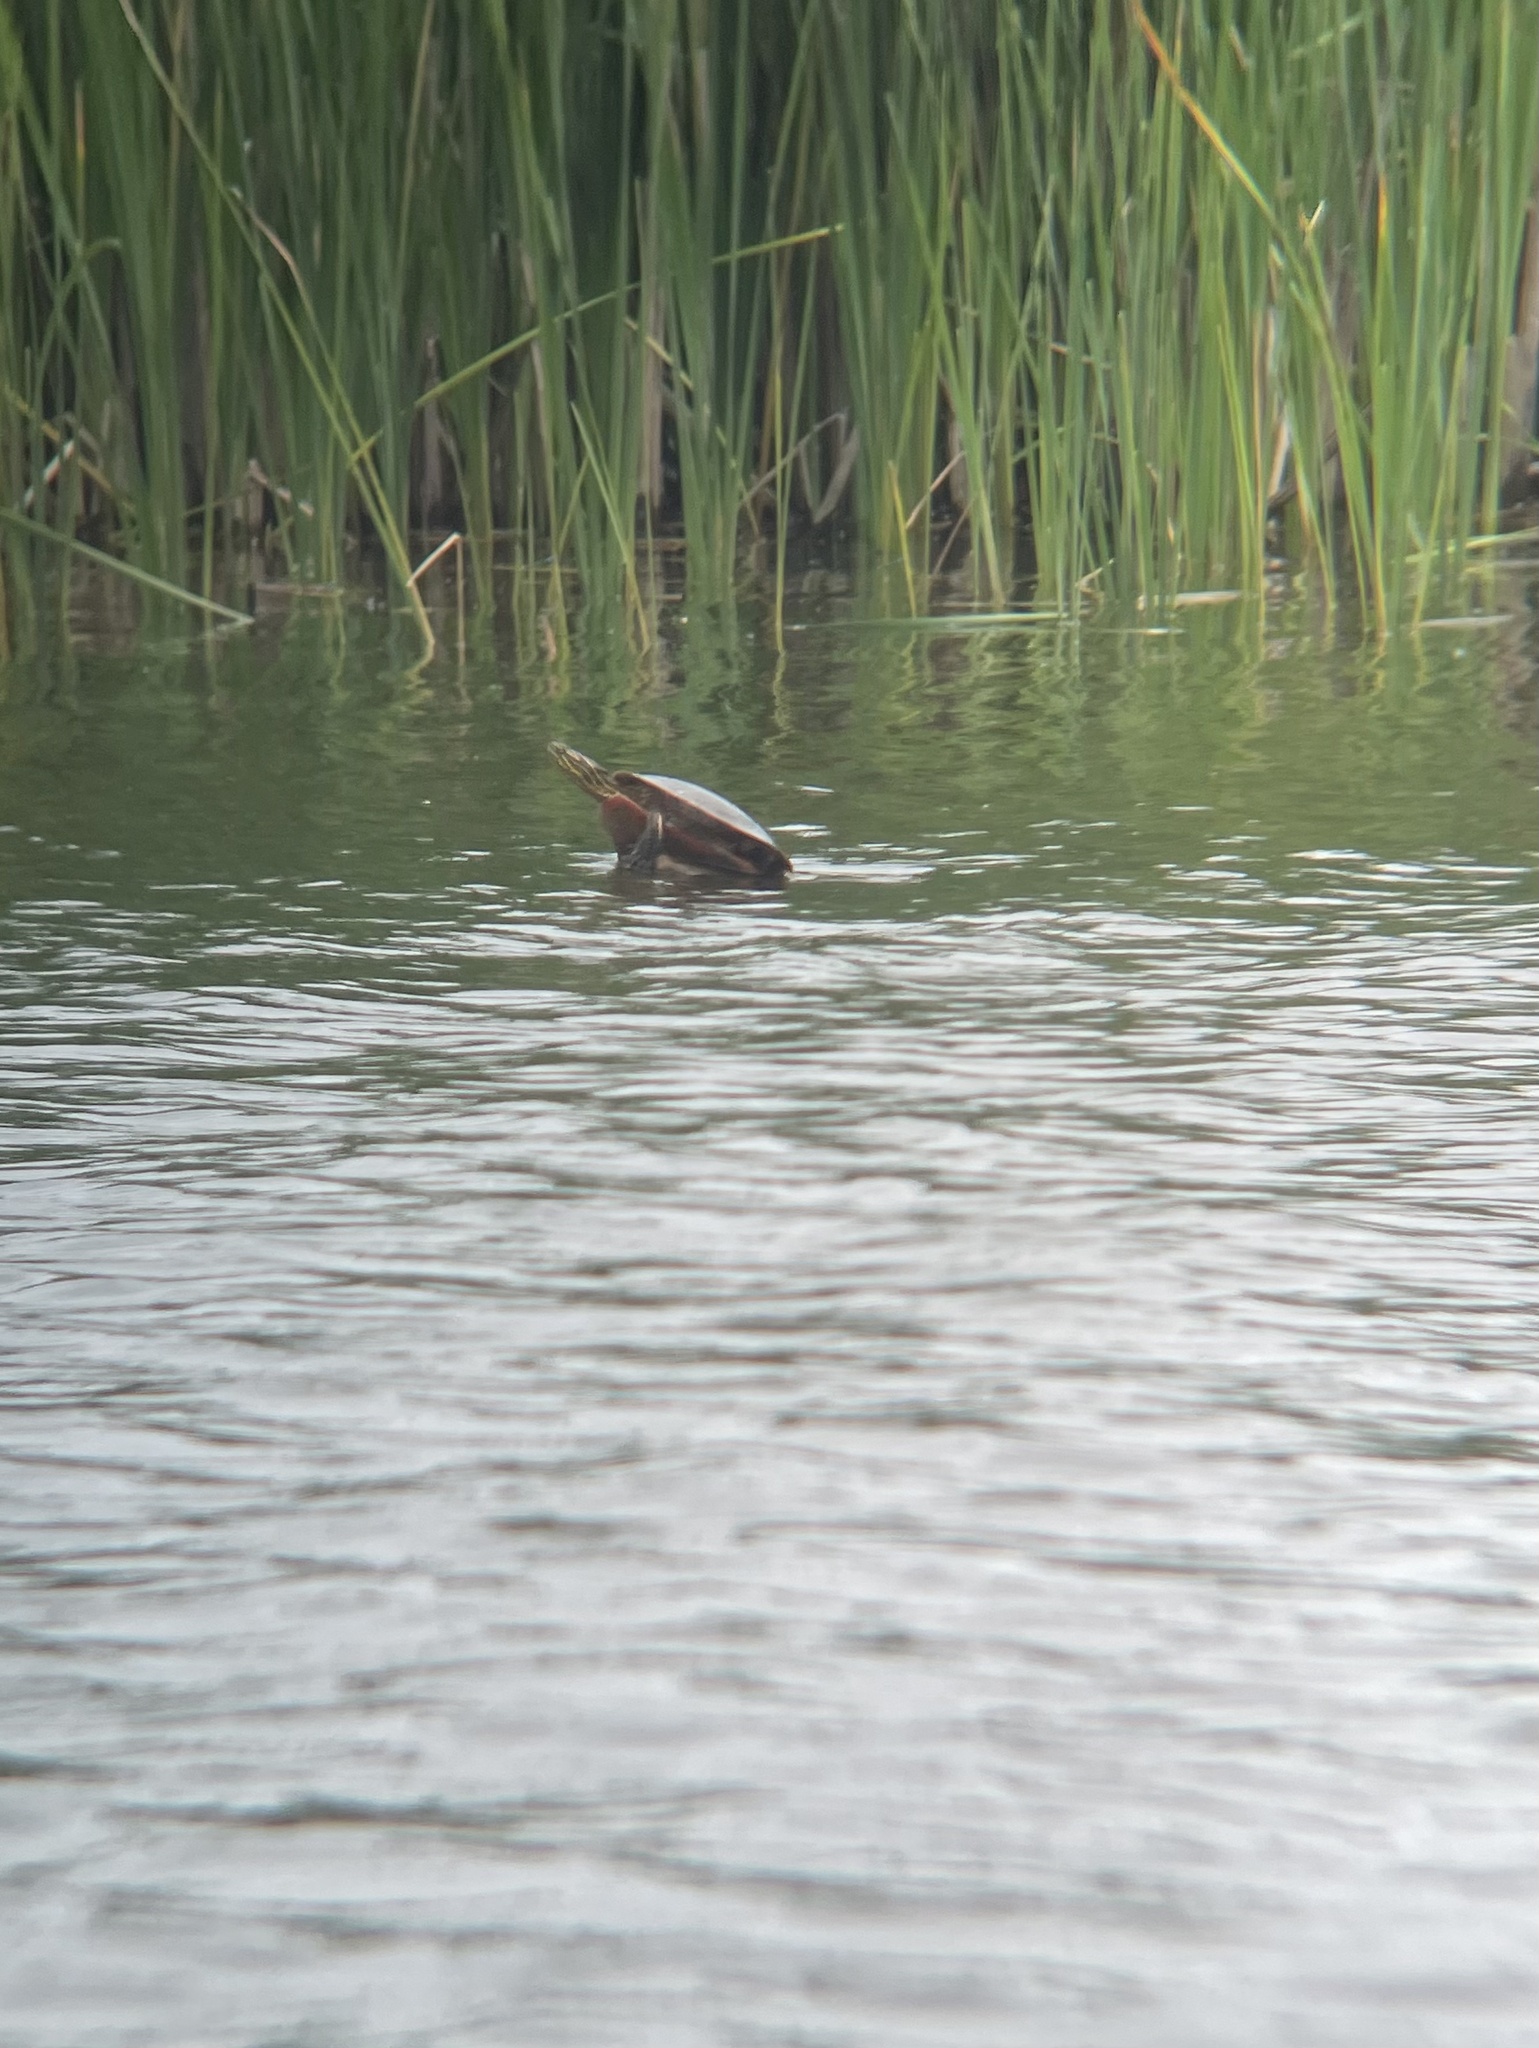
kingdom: Animalia
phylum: Chordata
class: Testudines
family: Emydidae
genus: Chrysemys
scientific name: Chrysemys picta
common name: Painted turtle
